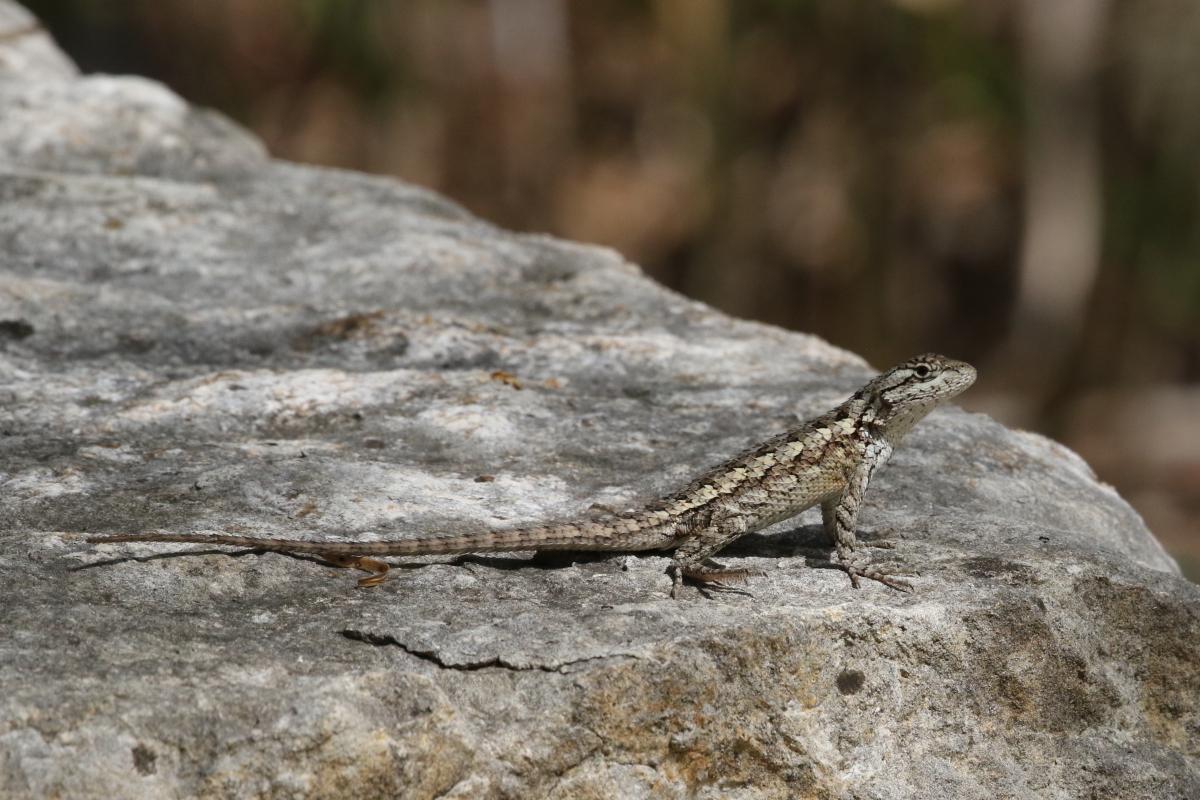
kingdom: Animalia
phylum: Chordata
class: Squamata
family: Phrynosomatidae
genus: Sceloporus
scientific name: Sceloporus olivaceus
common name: Texas spiny lizard
